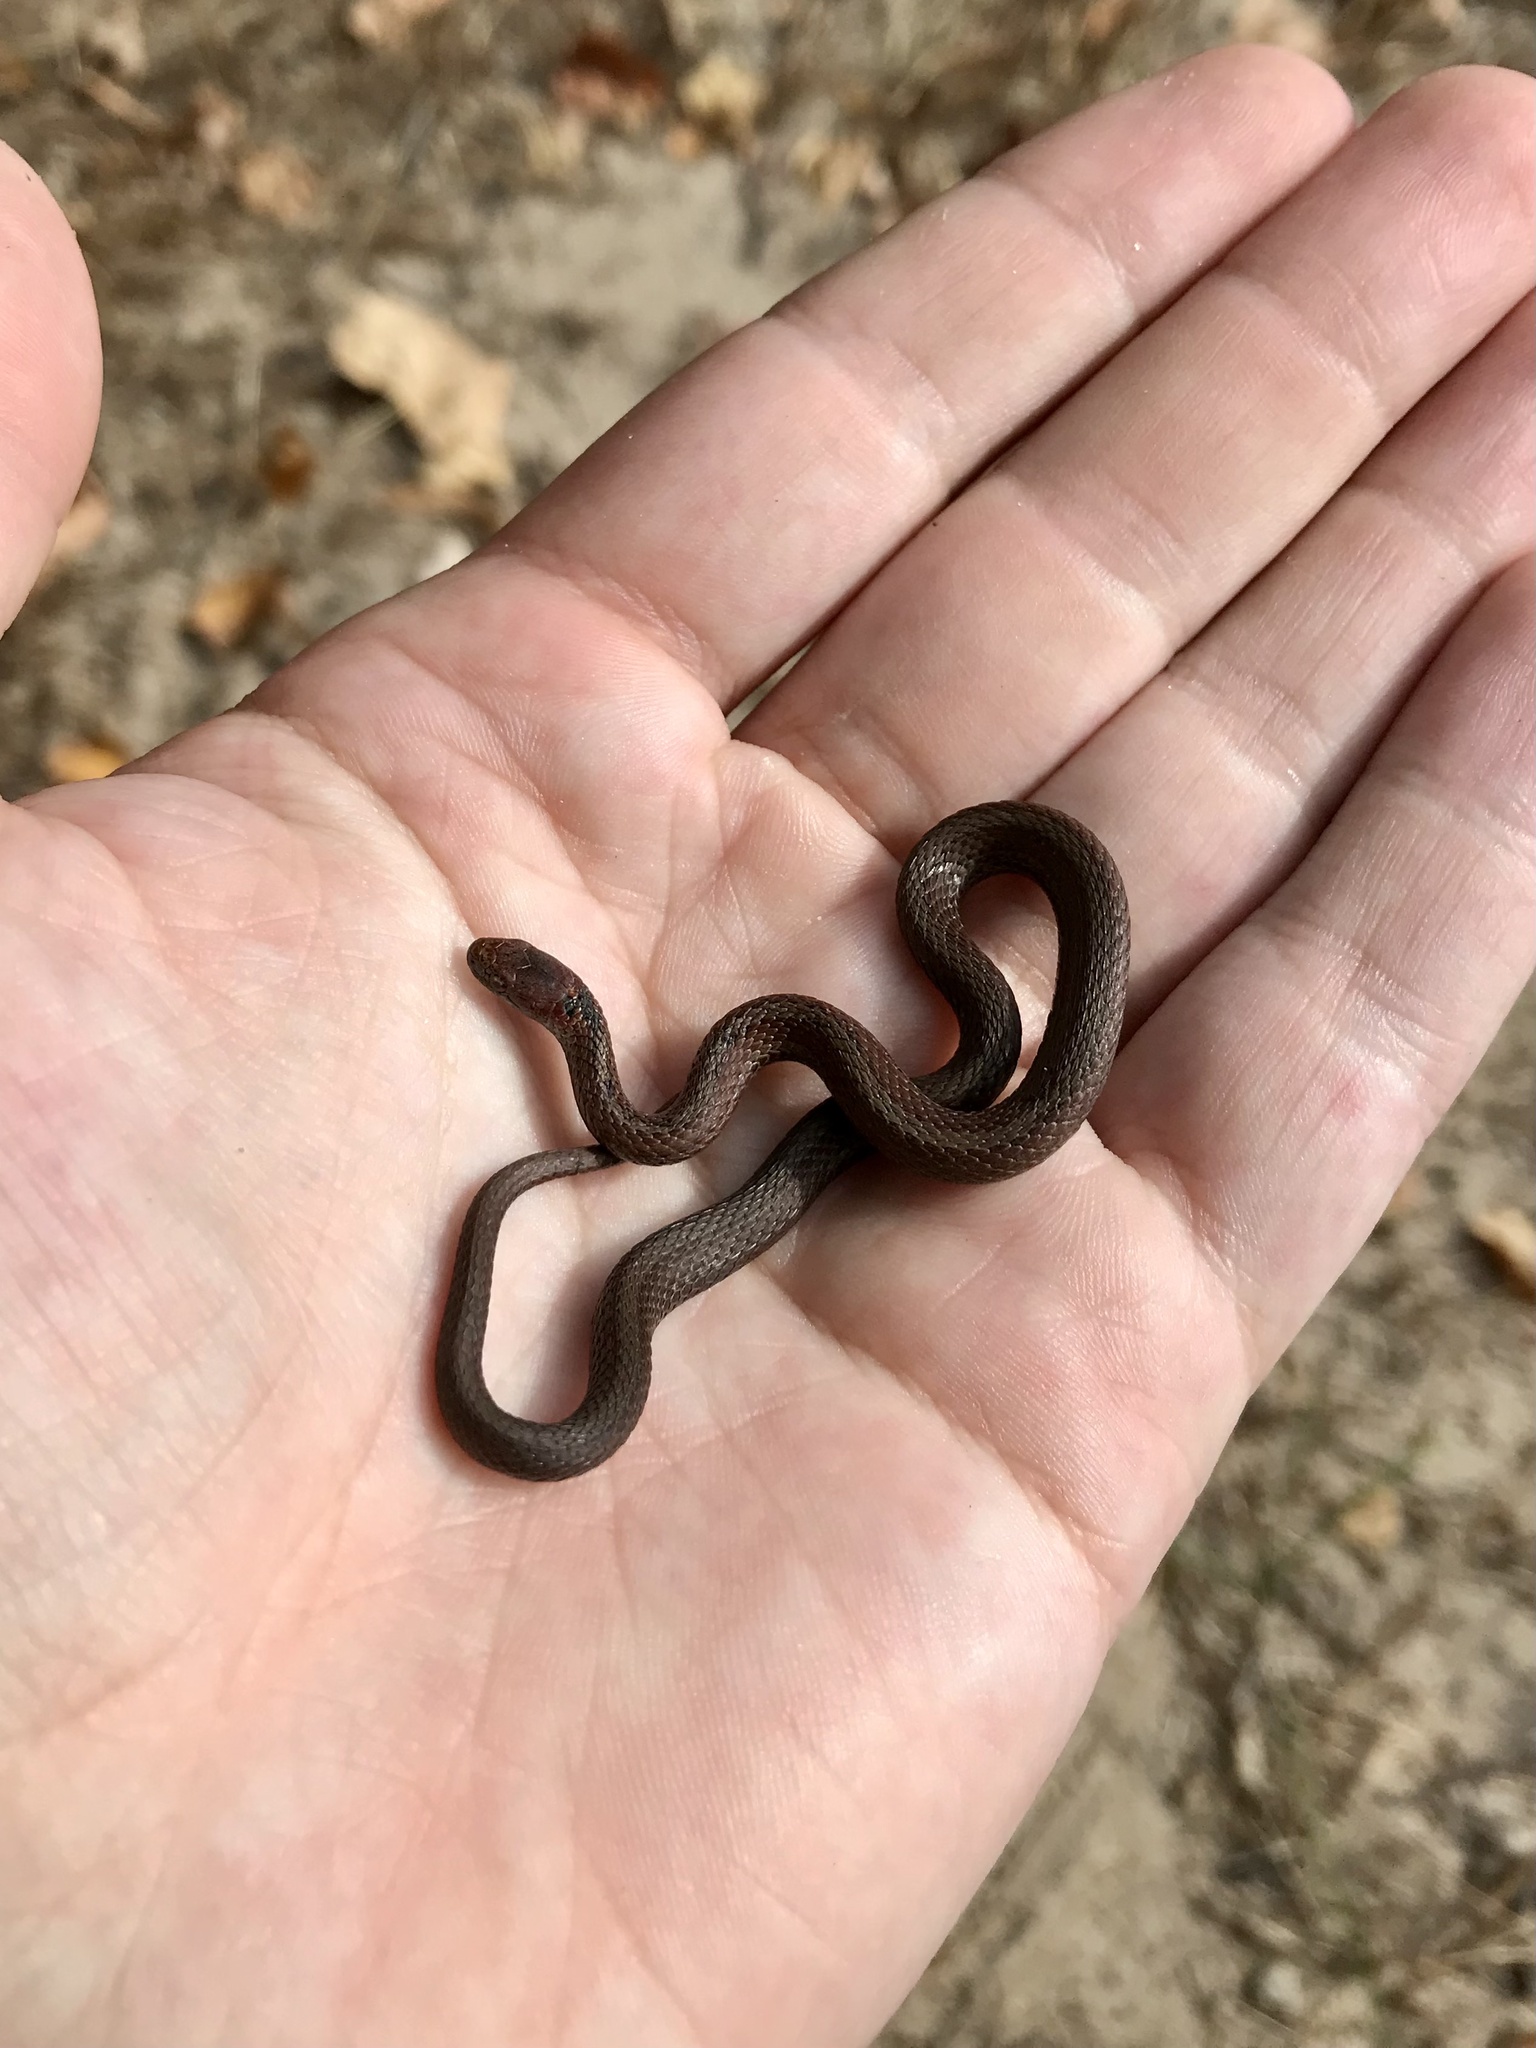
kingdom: Animalia
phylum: Chordata
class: Squamata
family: Colubridae
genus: Storeria
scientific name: Storeria occipitomaculata
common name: Redbelly snake
